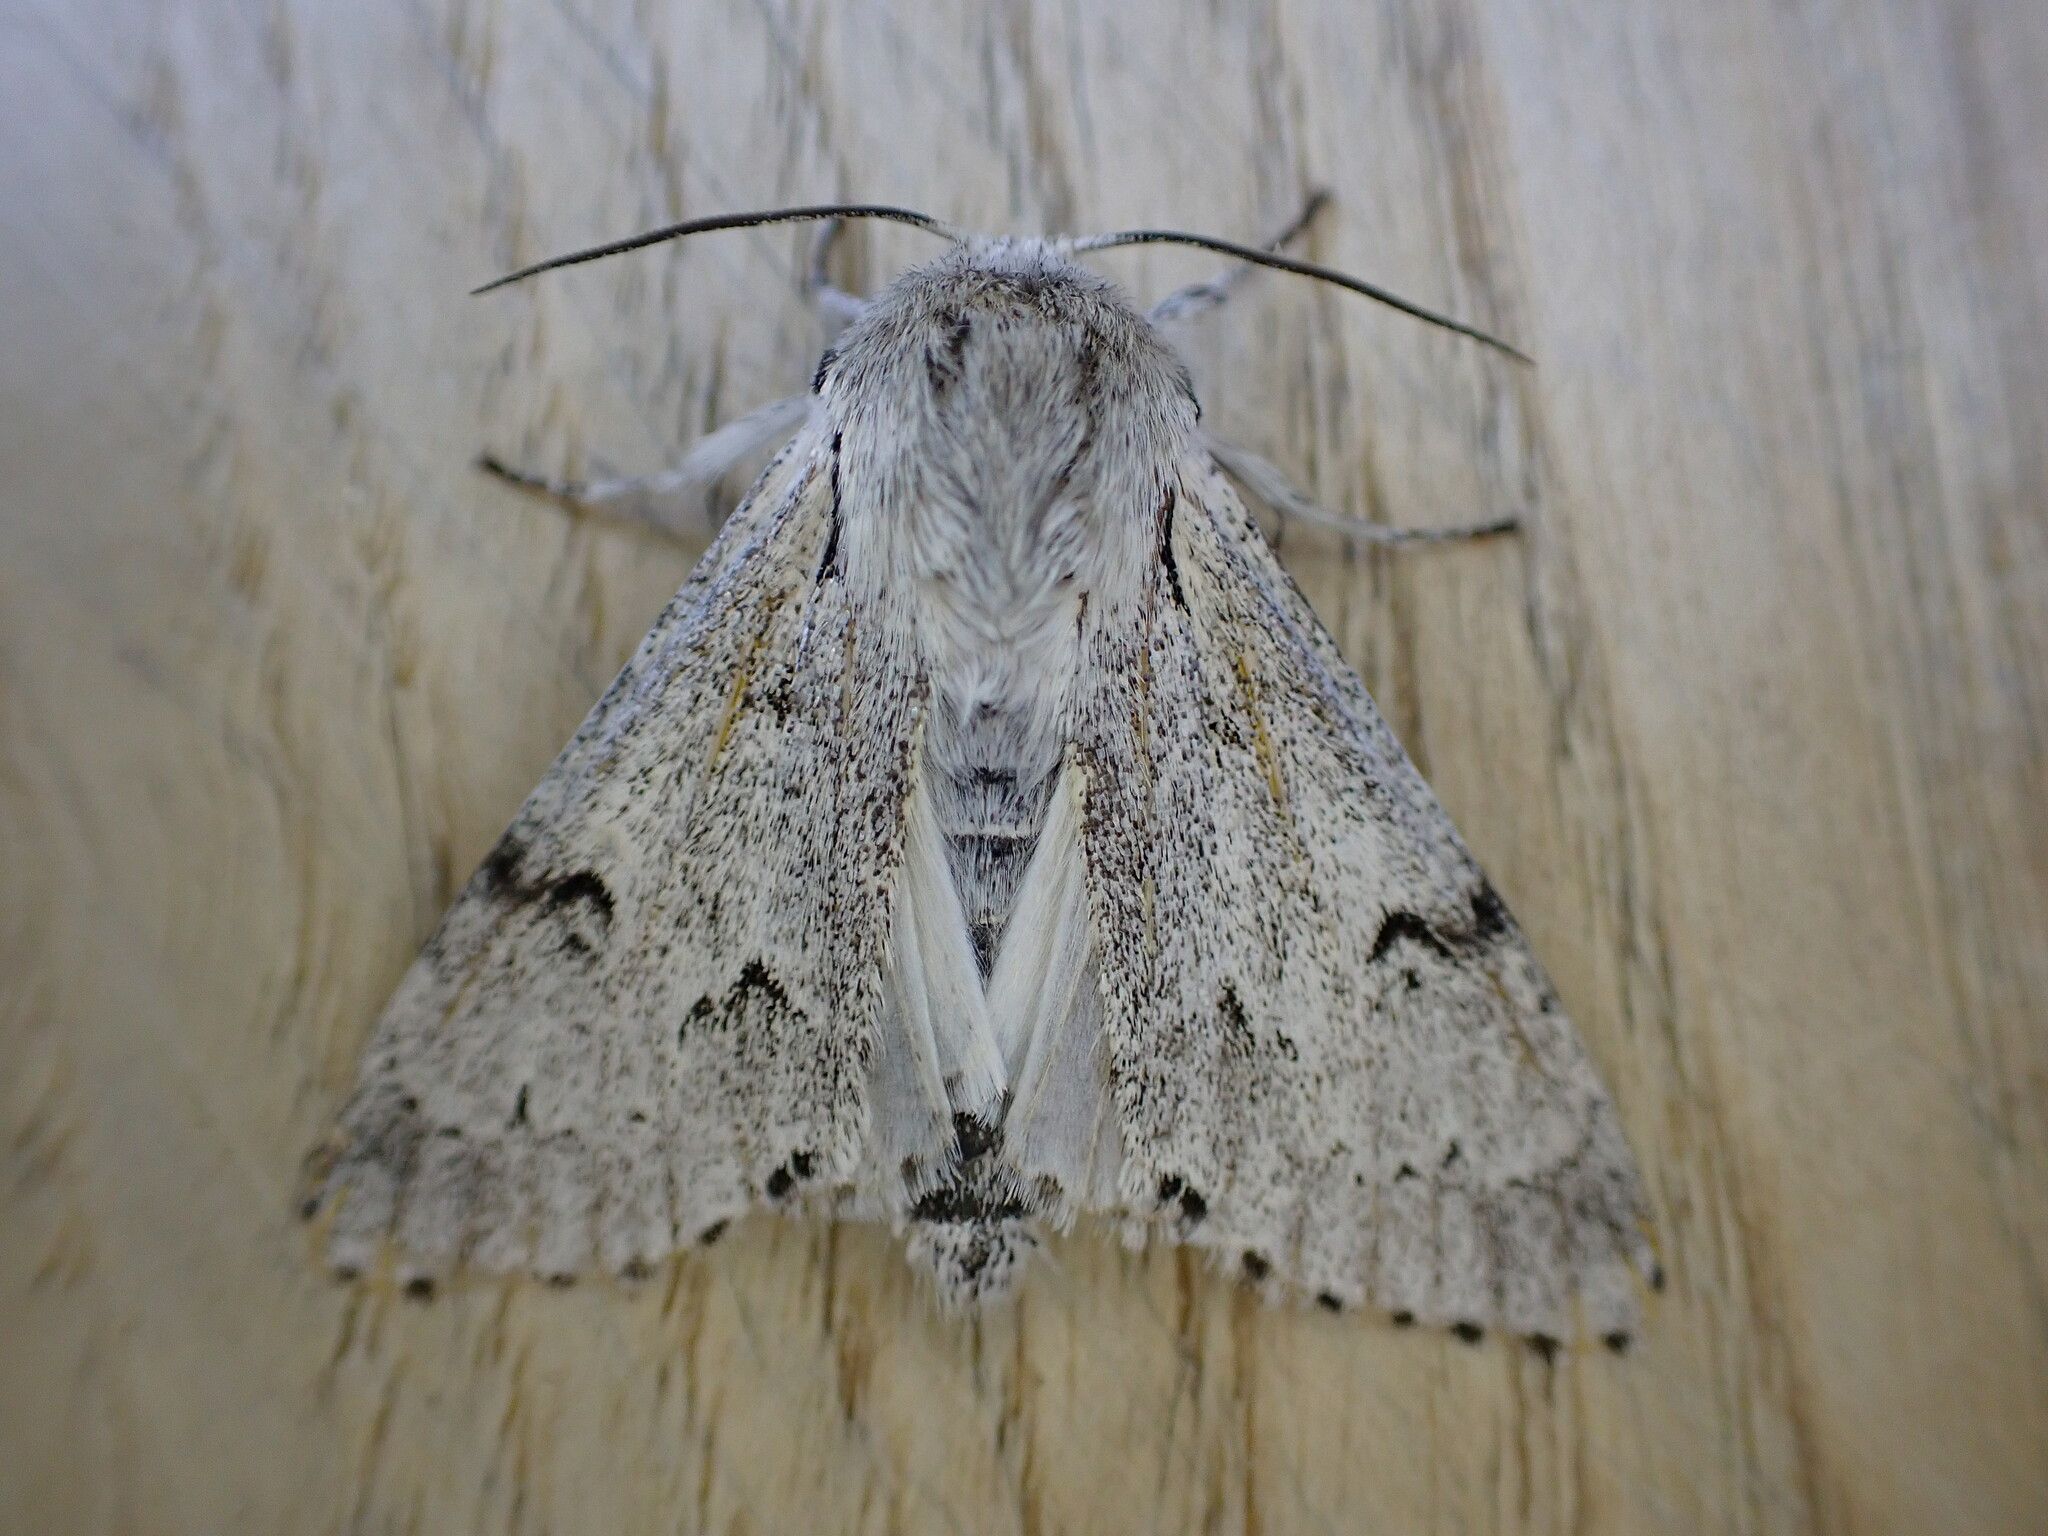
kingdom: Animalia
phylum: Arthropoda
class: Insecta
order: Lepidoptera
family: Noctuidae
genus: Acronicta
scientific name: Acronicta leporina
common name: Miller
